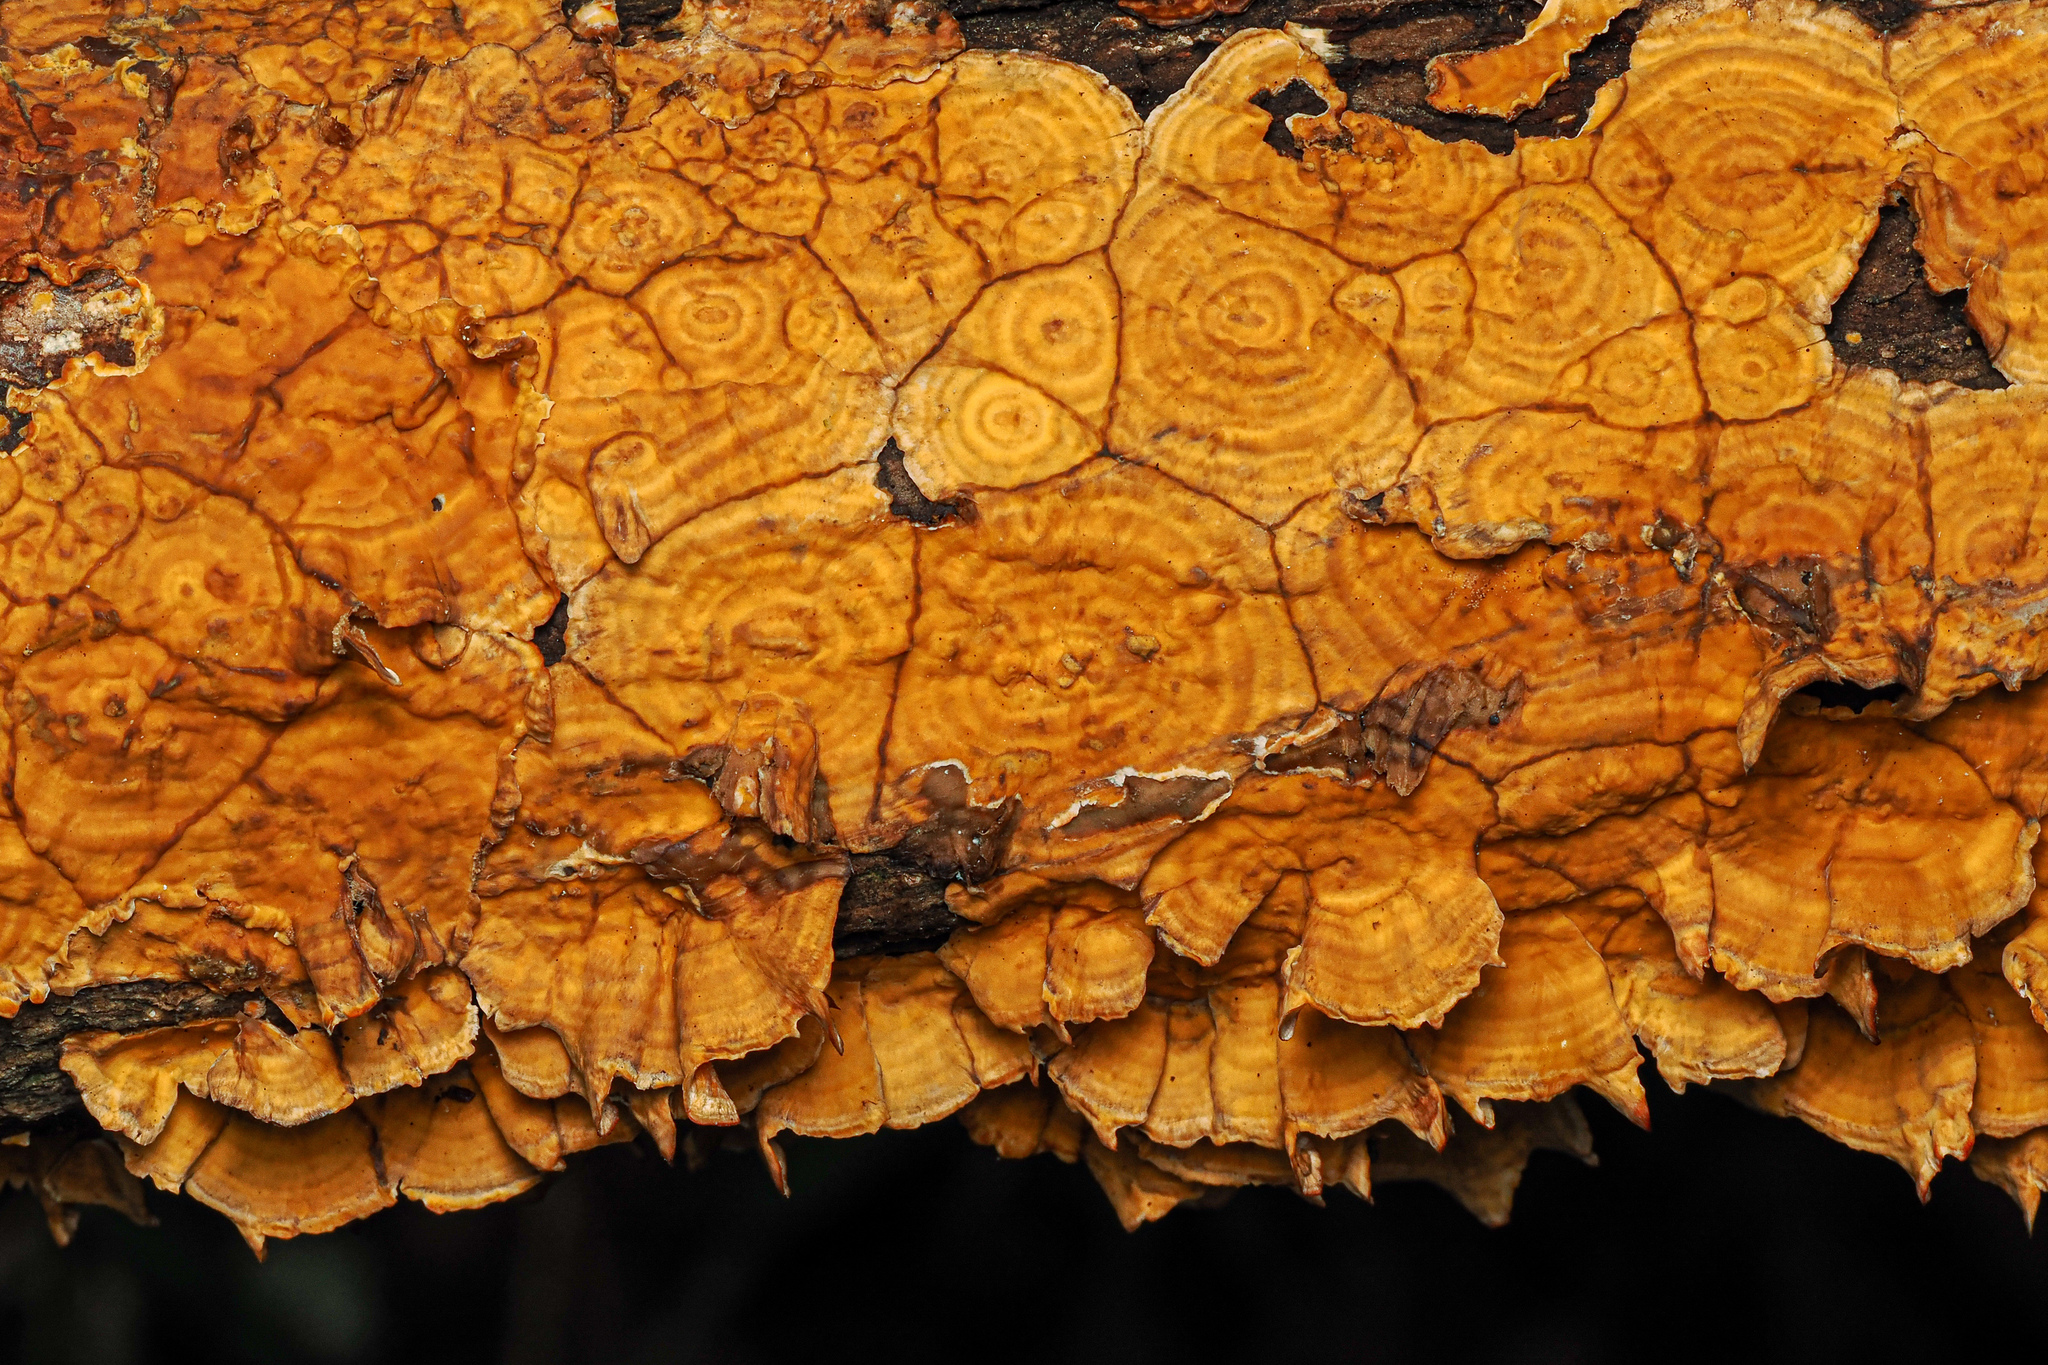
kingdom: Fungi
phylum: Basidiomycota
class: Agaricomycetes
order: Russulales
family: Stereaceae
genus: Stereum
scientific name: Stereum complicatum
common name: Crowded parchment
